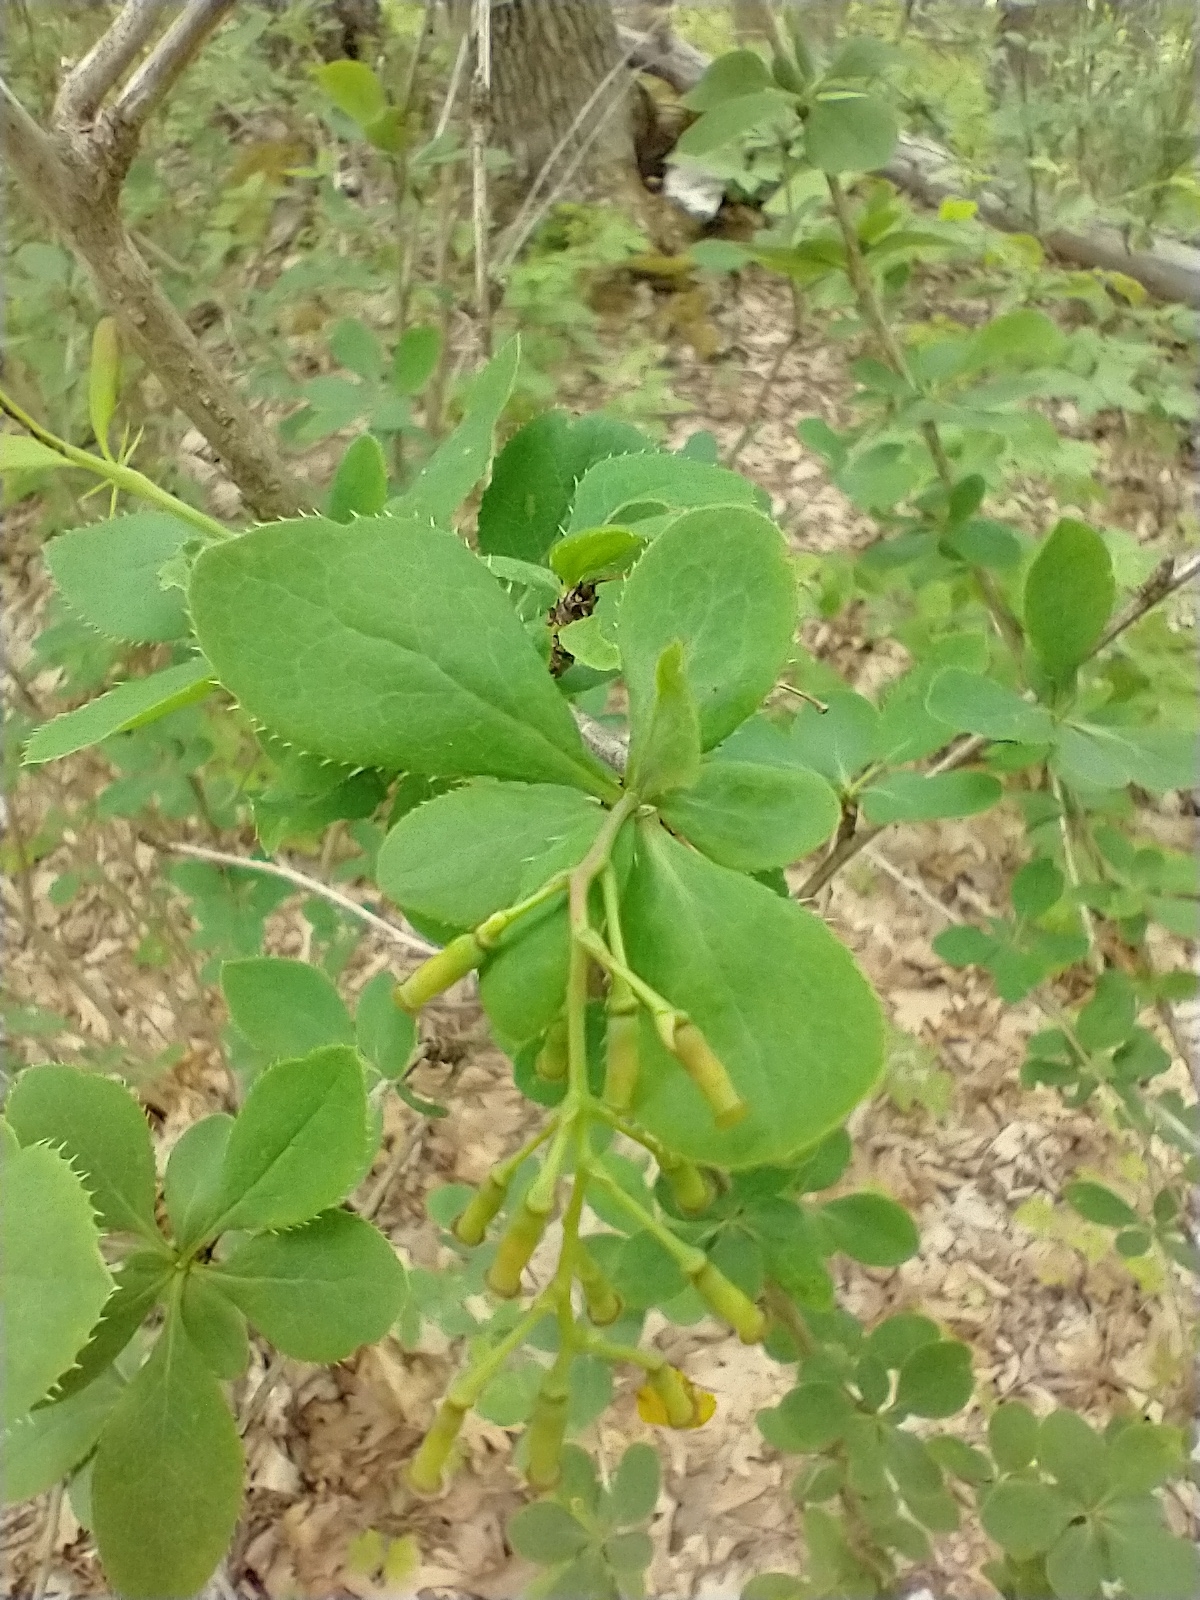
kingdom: Plantae
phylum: Tracheophyta
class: Magnoliopsida
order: Ranunculales
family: Berberidaceae
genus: Berberis
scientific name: Berberis vulgaris
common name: Barberry
